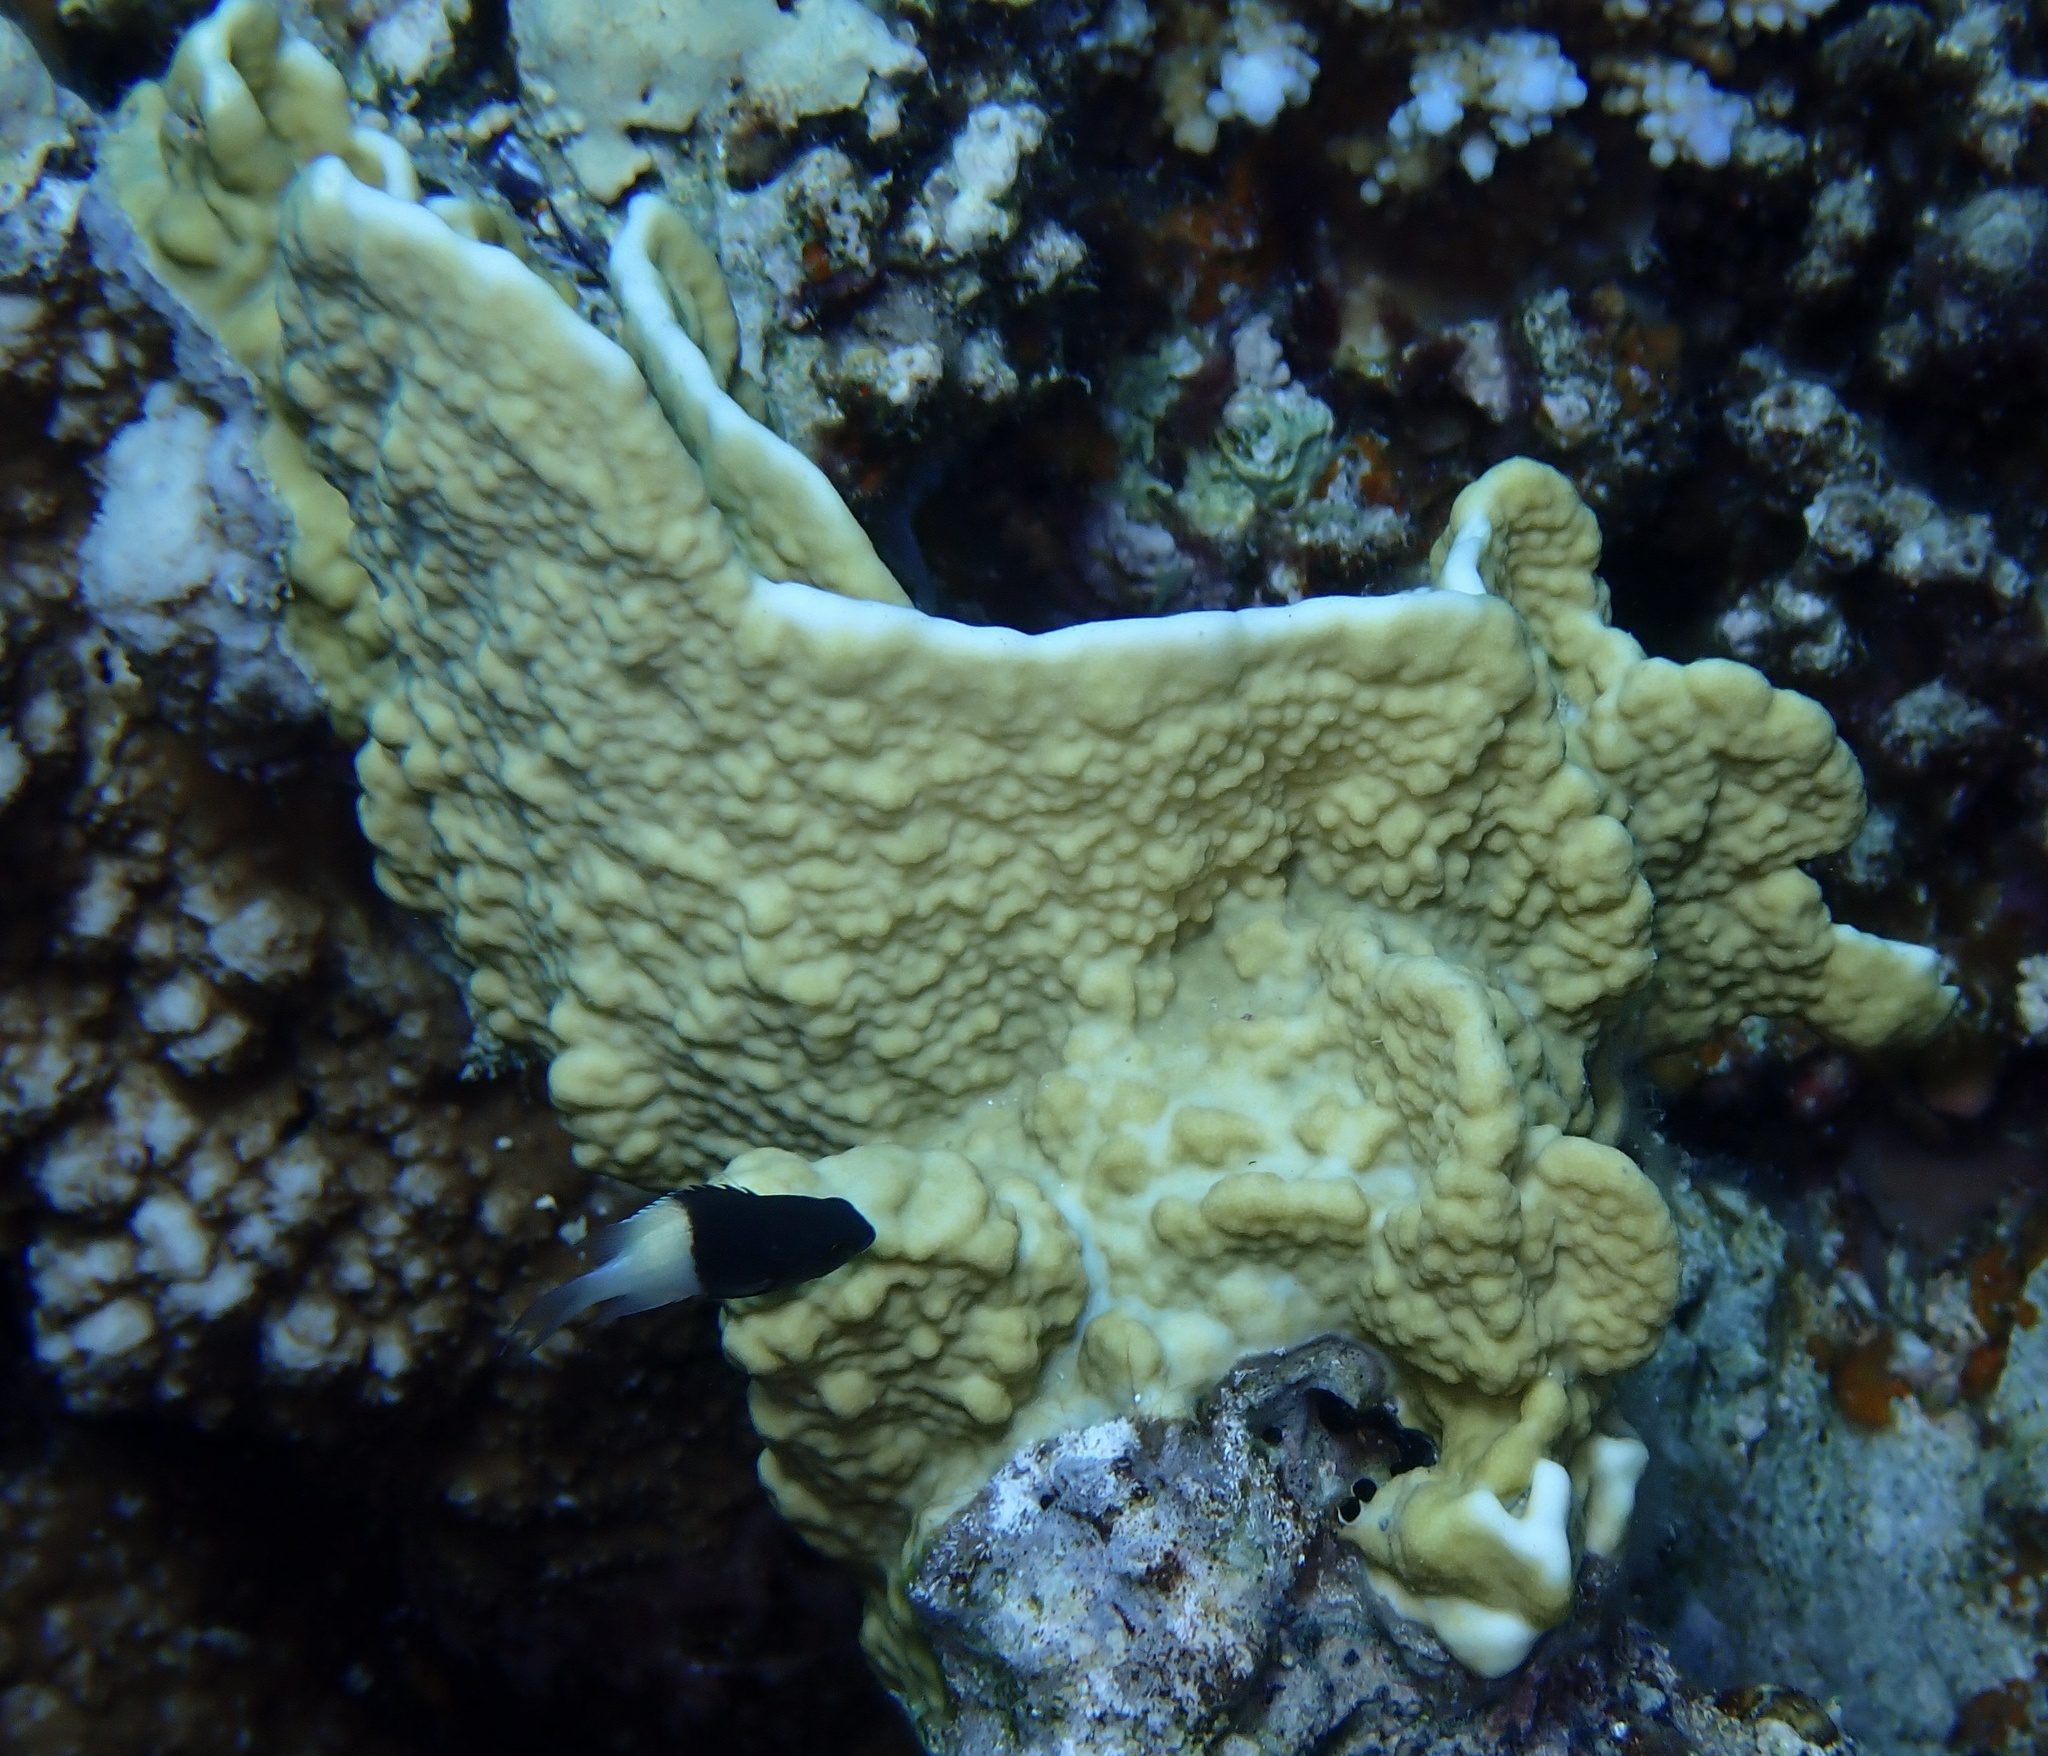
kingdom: Animalia
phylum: Cnidaria
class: Hydrozoa
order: Anthoathecata
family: Milleporidae
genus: Millepora
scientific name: Millepora platyphylla
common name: Sheet fire coral
